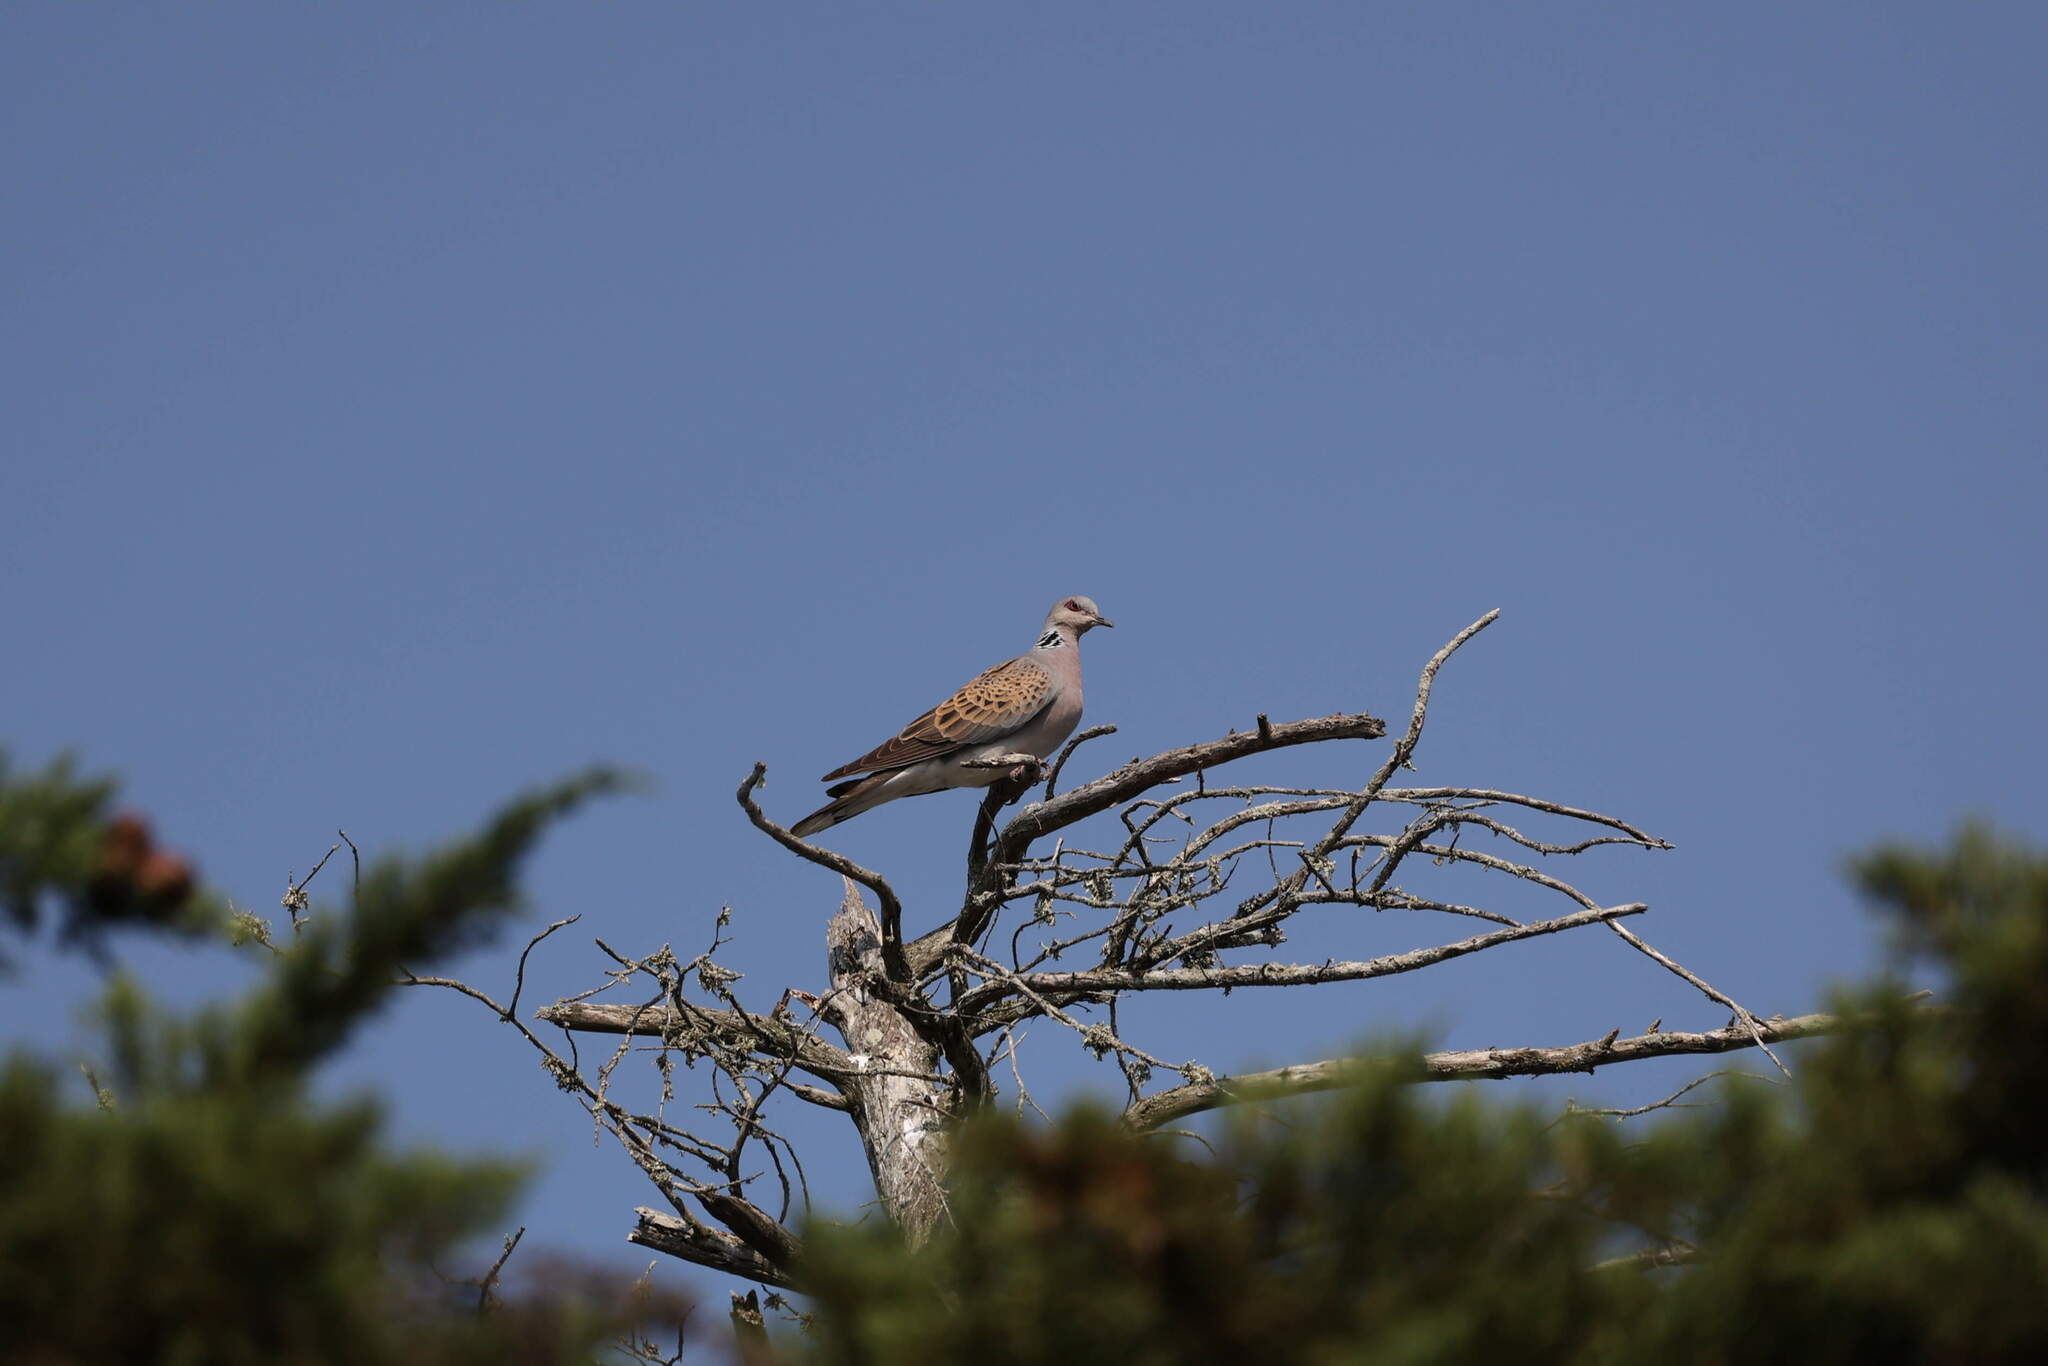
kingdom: Animalia
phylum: Chordata
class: Aves
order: Columbiformes
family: Columbidae
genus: Streptopelia
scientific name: Streptopelia turtur
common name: European turtle dove
